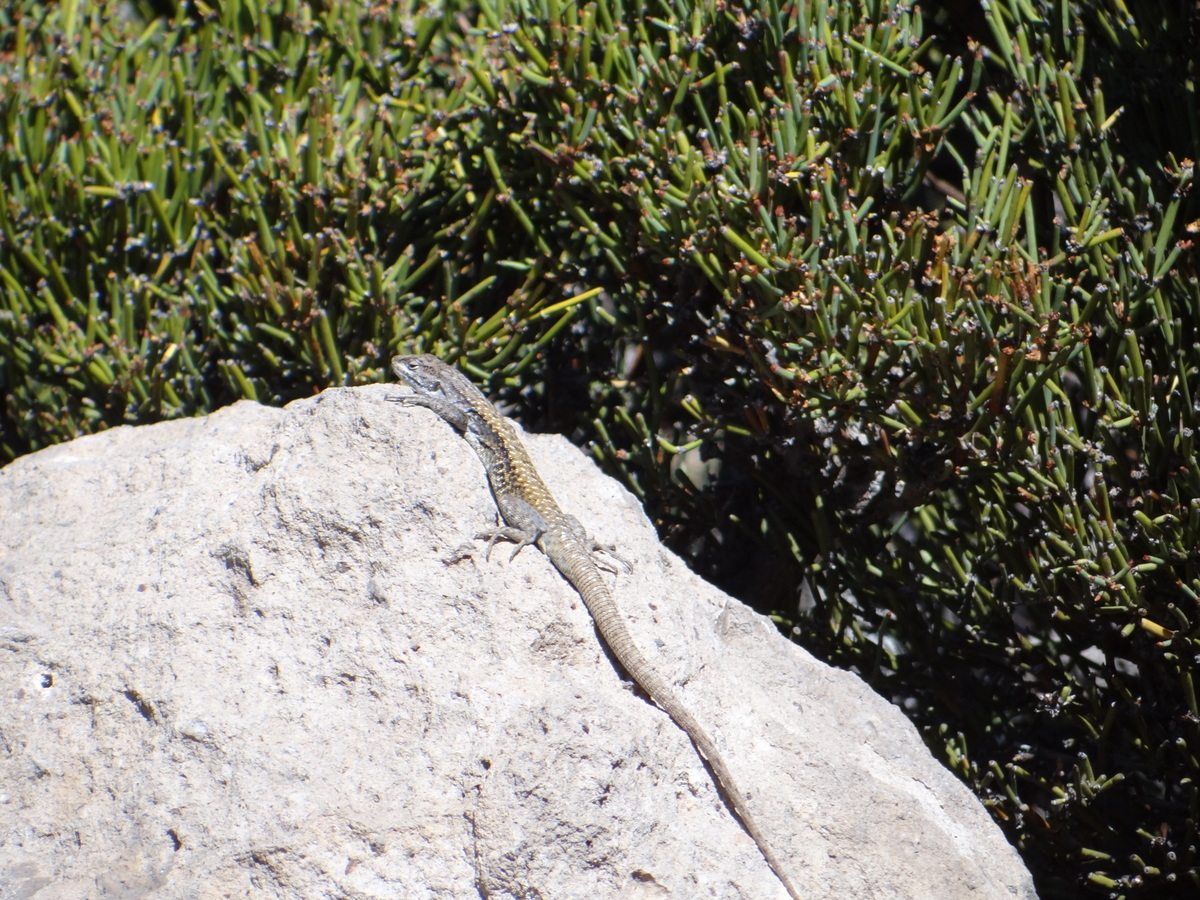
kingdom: Animalia
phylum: Chordata
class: Squamata
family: Liolaemidae
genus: Liolaemus
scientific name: Liolaemus smaug
